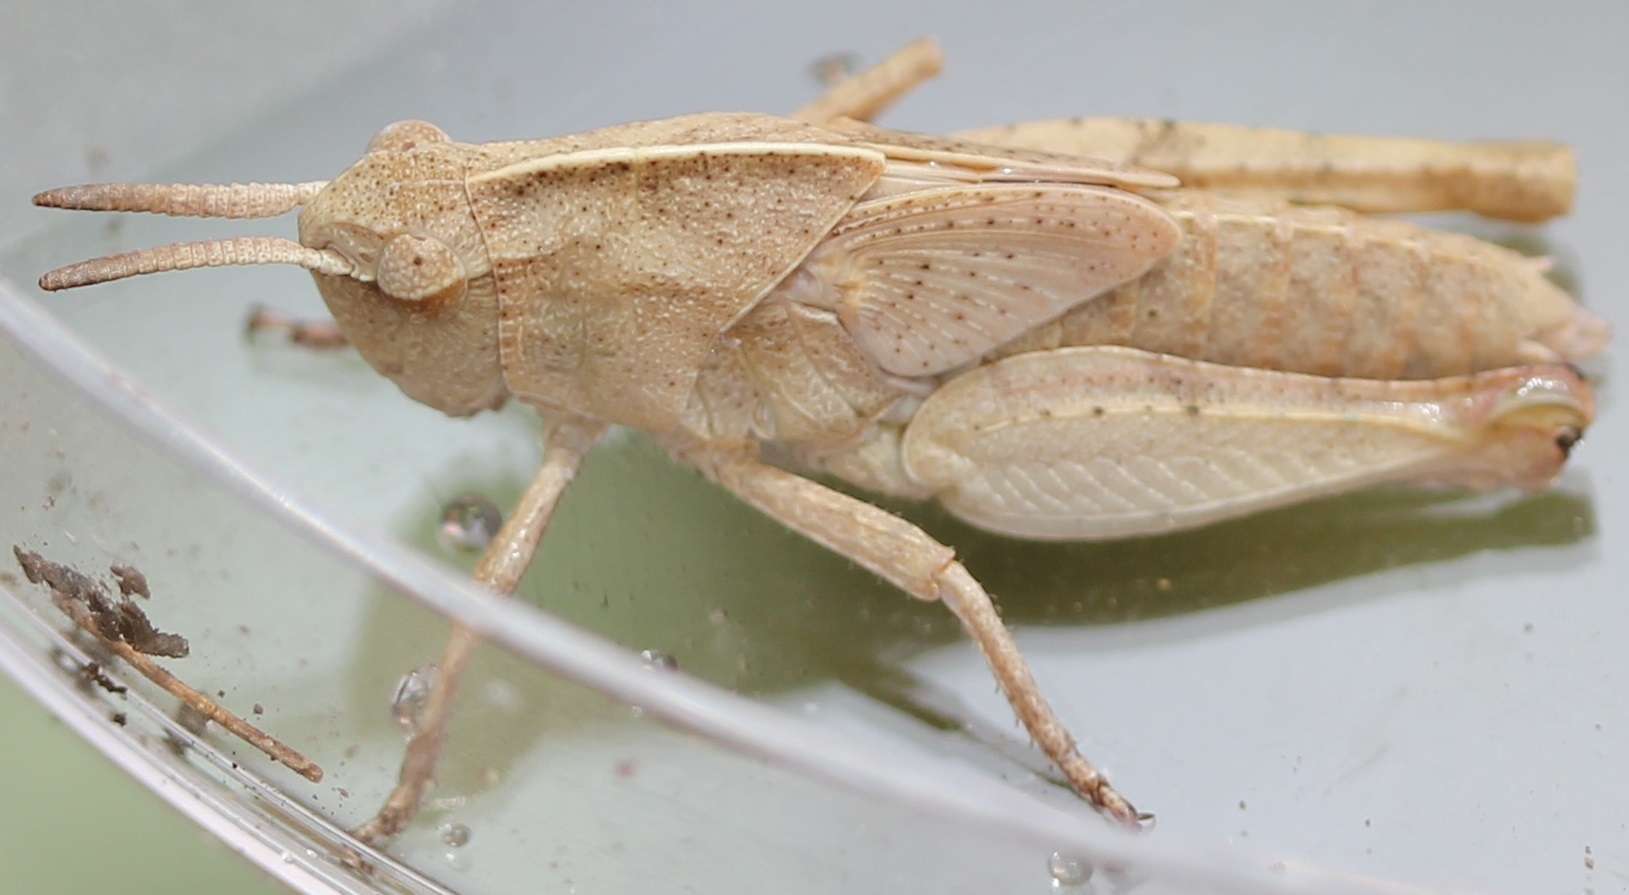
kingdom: Animalia
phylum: Arthropoda
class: Insecta
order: Orthoptera
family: Acrididae
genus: Chortophaga
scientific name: Chortophaga viridifasciata
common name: Green-striped grasshopper
